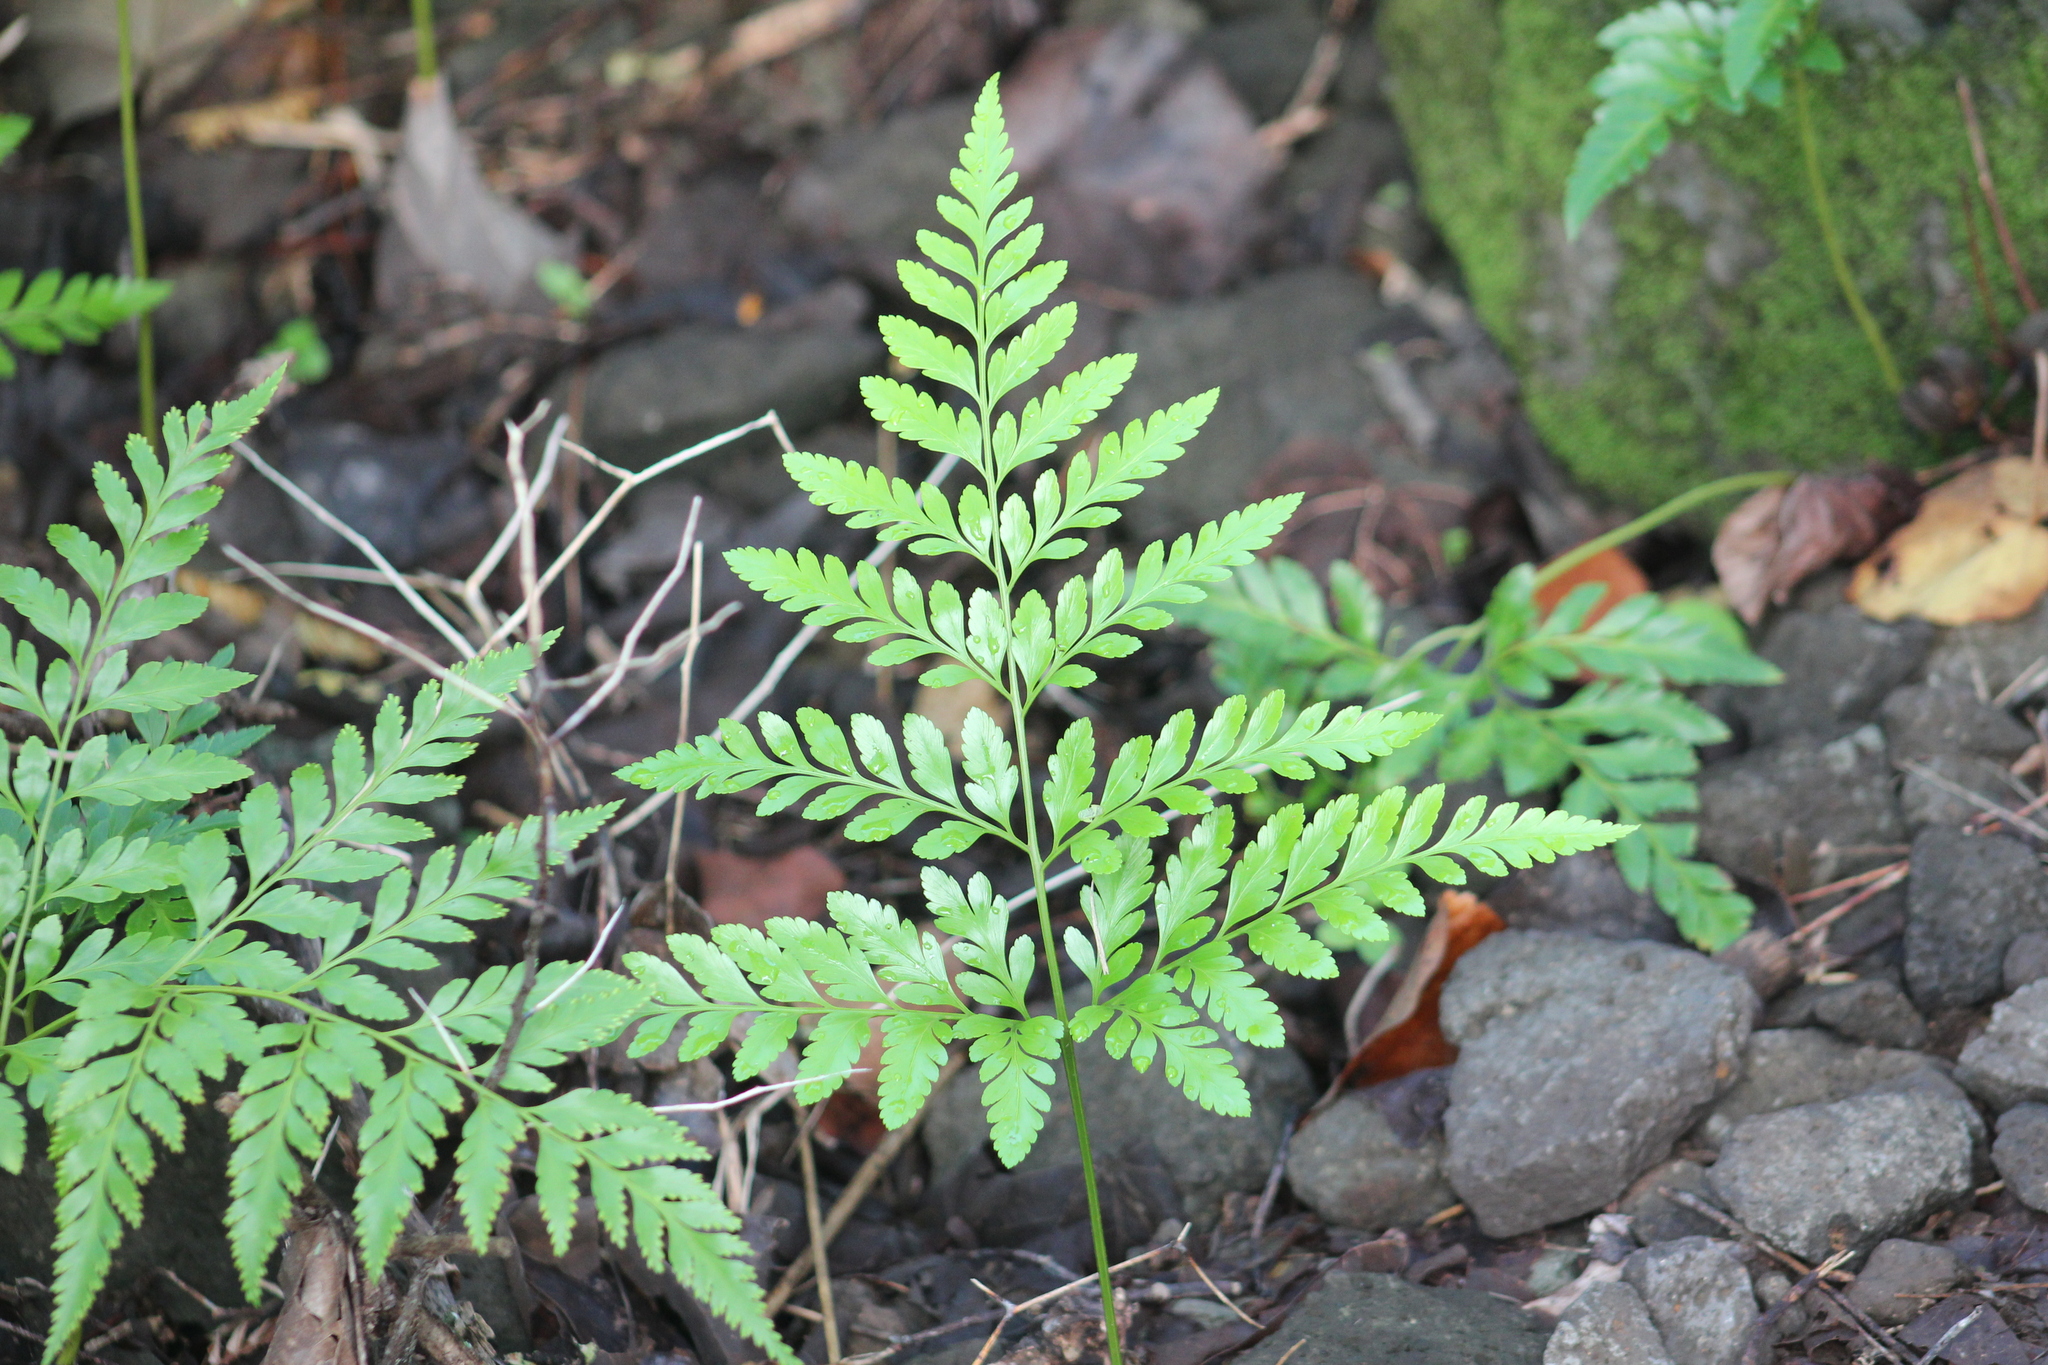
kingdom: Plantae
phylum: Tracheophyta
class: Polypodiopsida
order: Polypodiales
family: Davalliaceae
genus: Davallia
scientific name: Davallia solida
